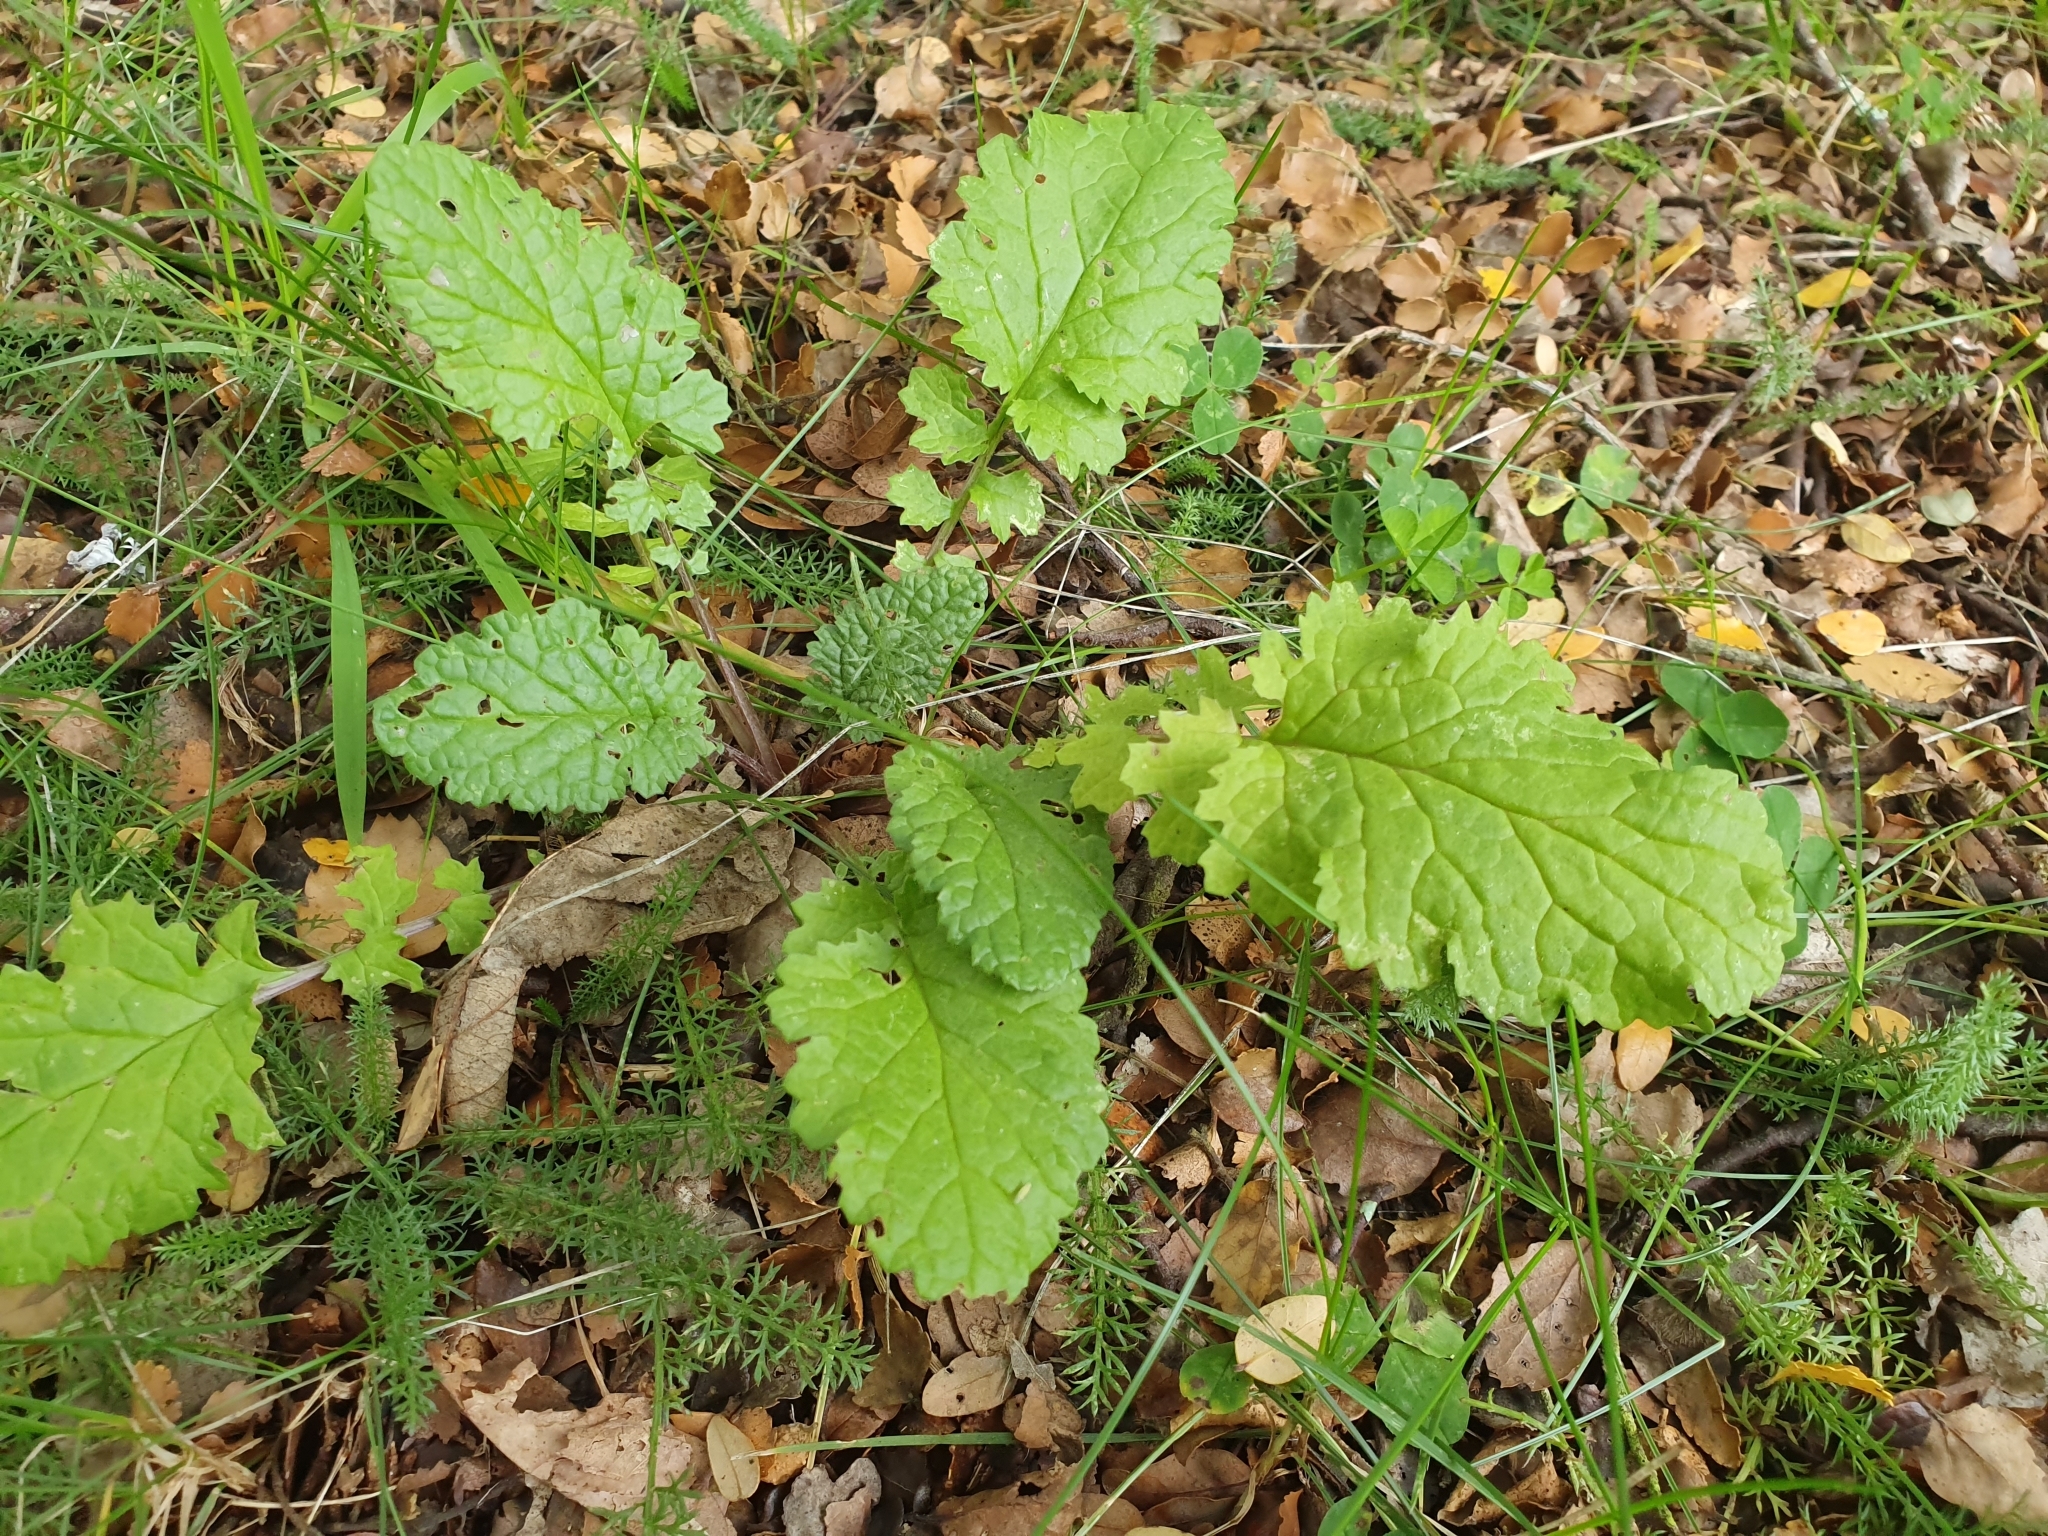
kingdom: Plantae
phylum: Tracheophyta
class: Magnoliopsida
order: Asterales
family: Asteraceae
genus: Jacobaea
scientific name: Jacobaea vulgaris
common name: Stinking willie
